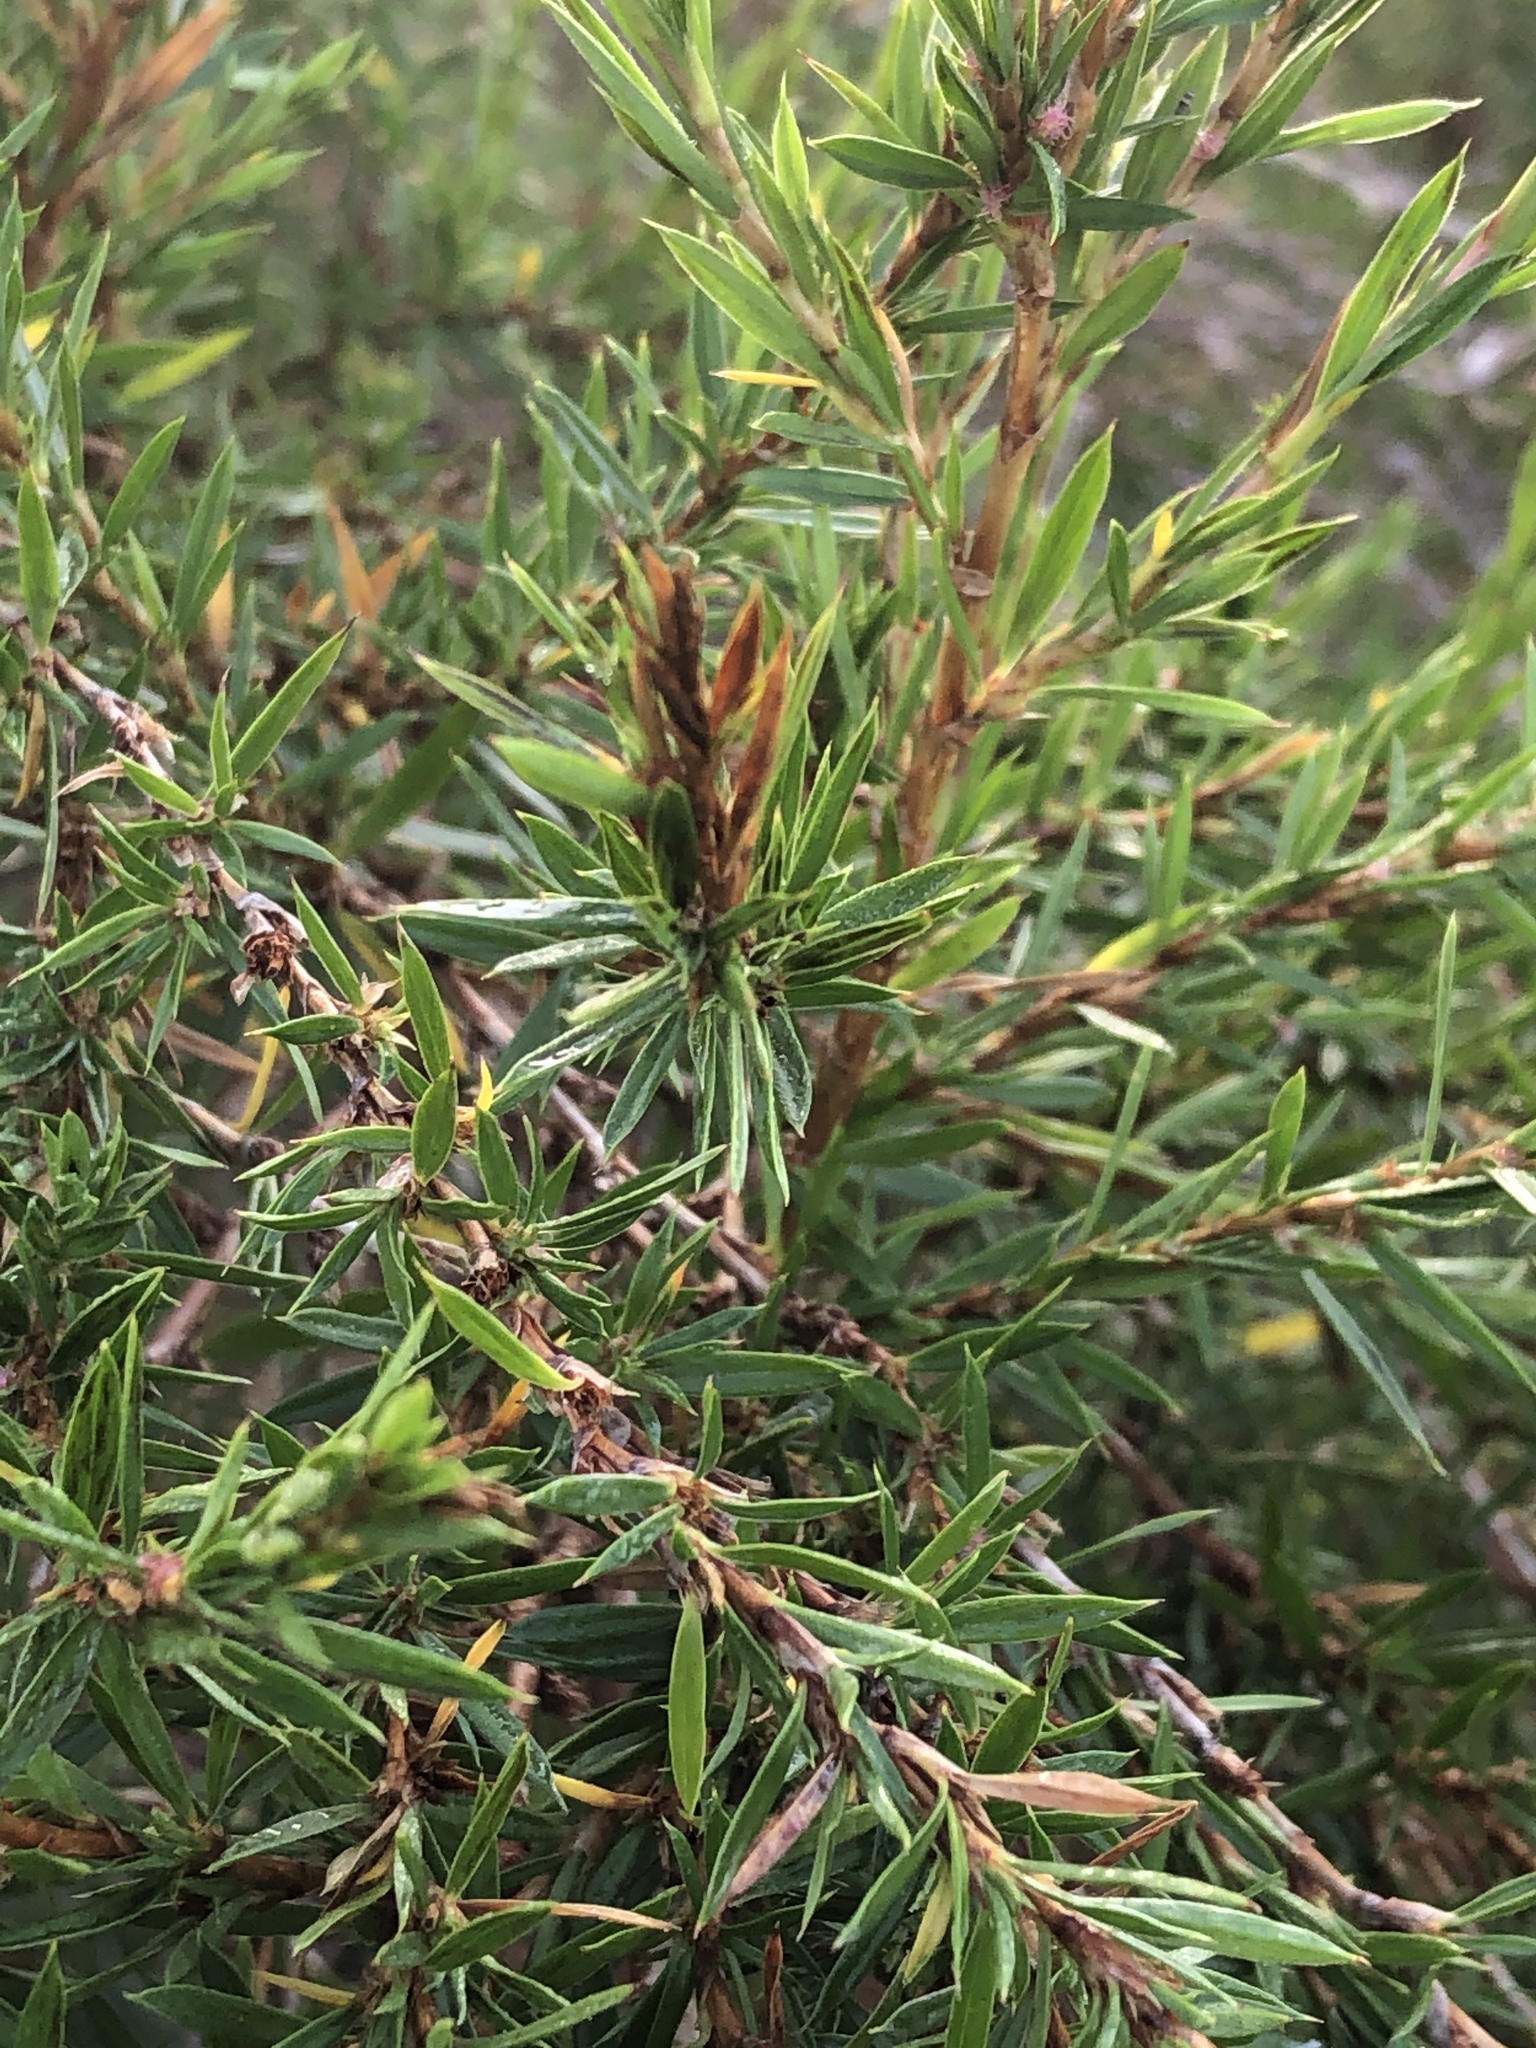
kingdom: Plantae
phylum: Tracheophyta
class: Magnoliopsida
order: Rosales
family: Rosaceae
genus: Cliffortia
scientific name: Cliffortia strobilifera
